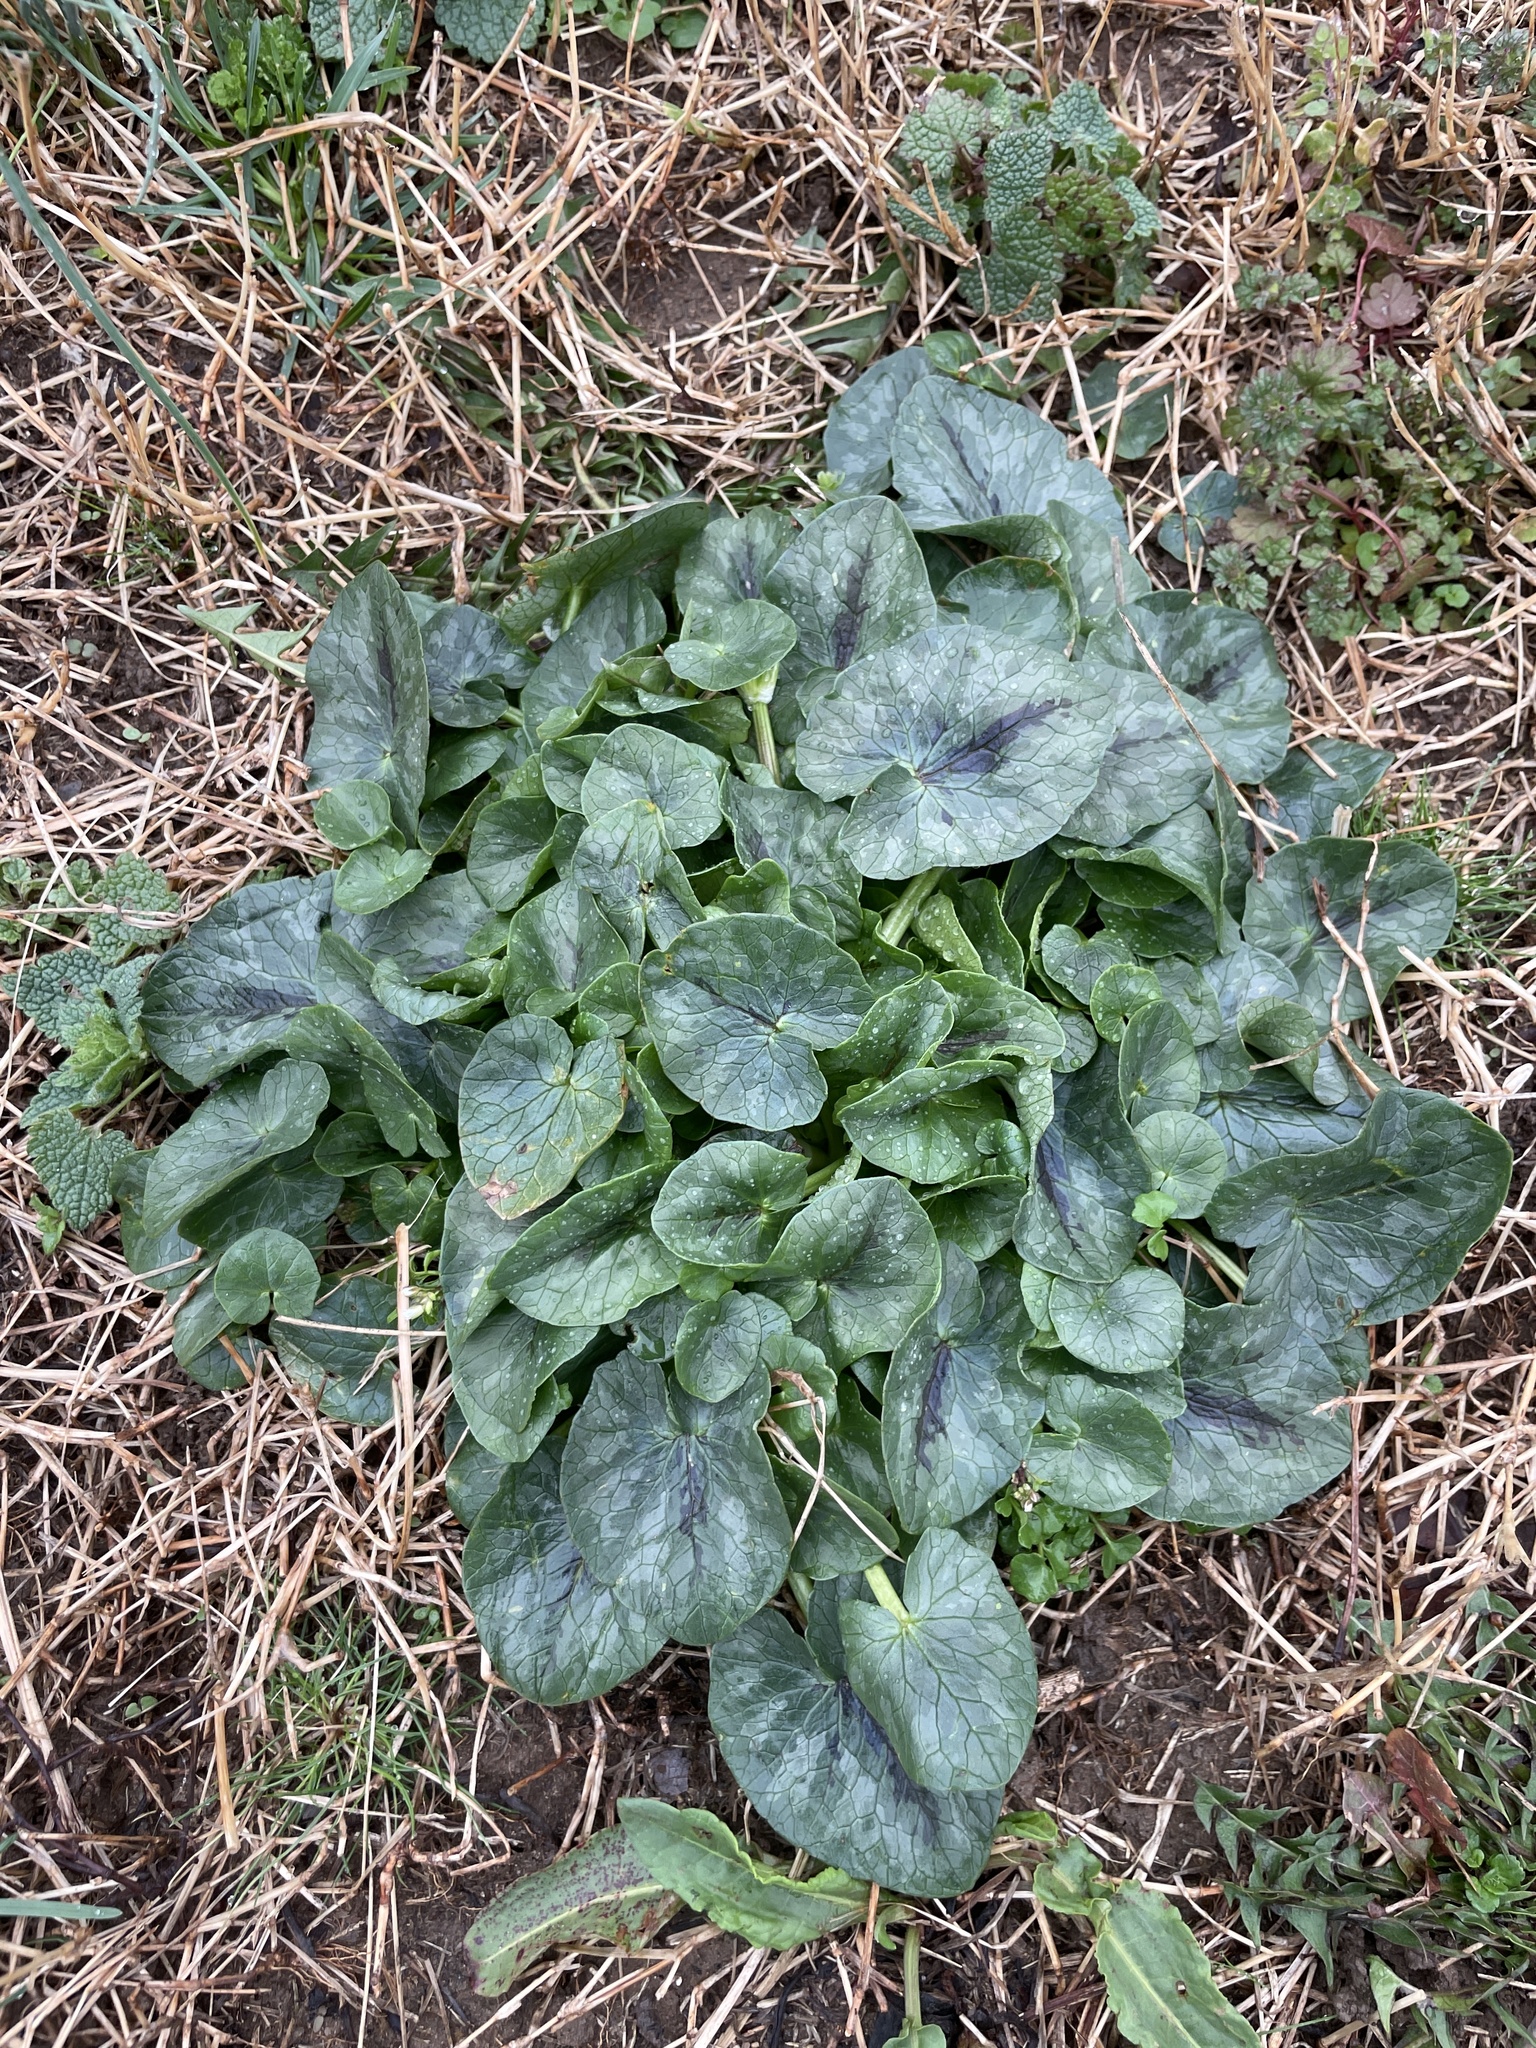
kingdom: Plantae
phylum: Tracheophyta
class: Magnoliopsida
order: Ranunculales
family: Ranunculaceae
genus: Ficaria
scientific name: Ficaria verna
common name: Lesser celandine
